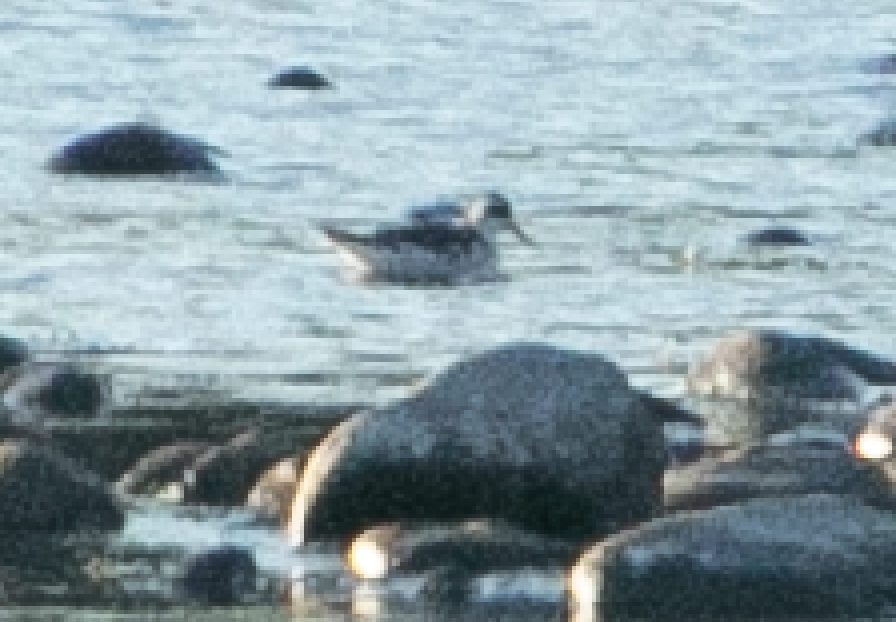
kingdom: Animalia
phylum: Chordata
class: Aves
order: Charadriiformes
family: Scolopacidae
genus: Phalaropus
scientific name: Phalaropus lobatus
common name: Red-necked phalarope
